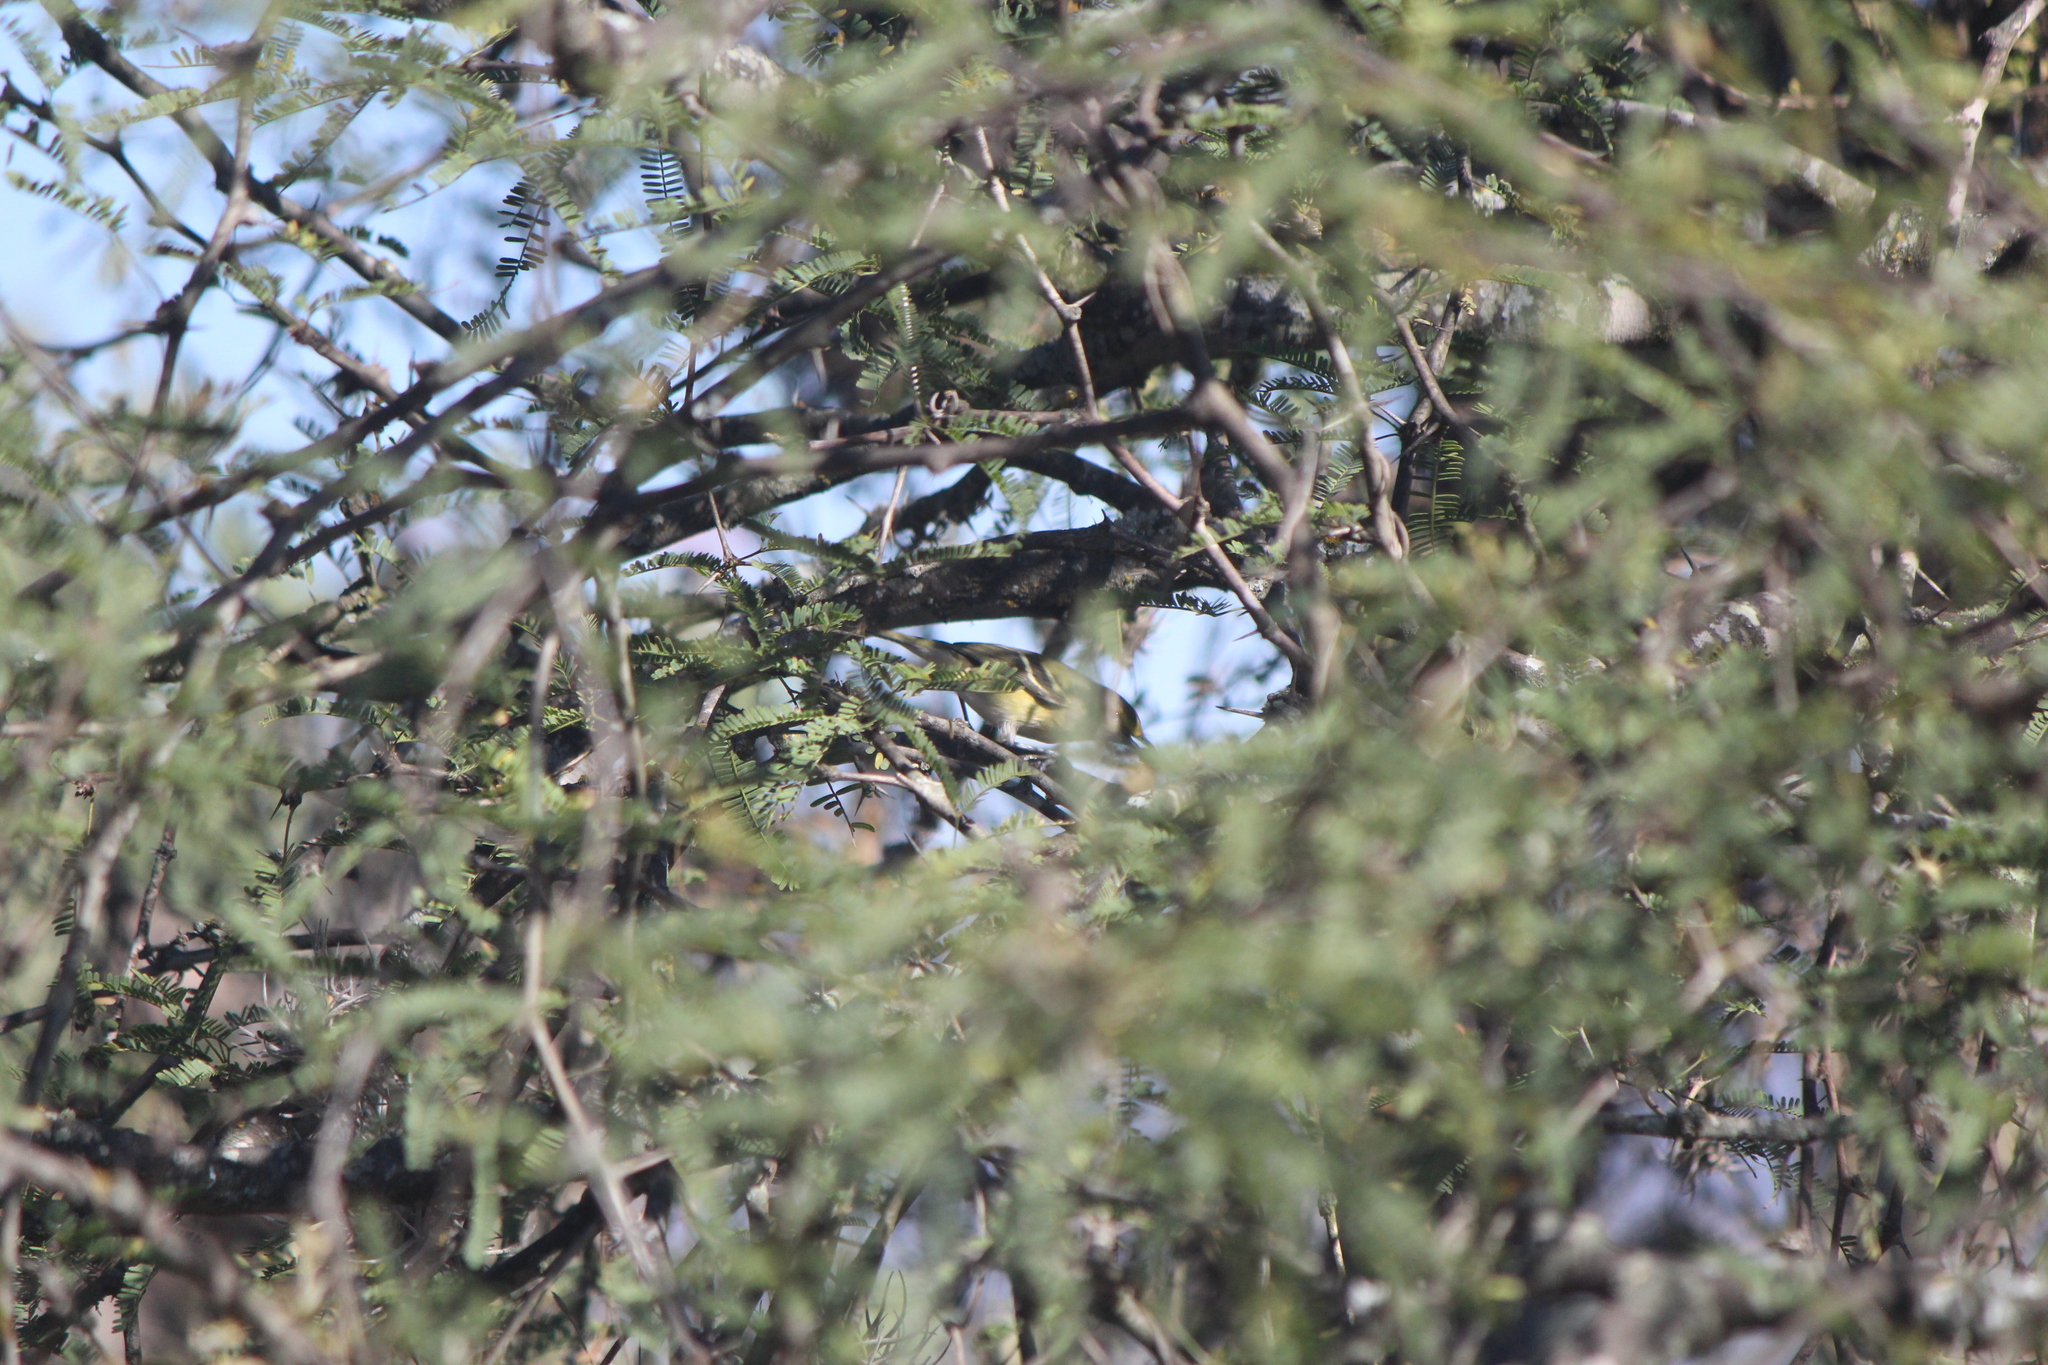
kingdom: Animalia
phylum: Chordata
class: Aves
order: Passeriformes
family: Vireonidae
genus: Vireo
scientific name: Vireo griseus
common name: White-eyed vireo
